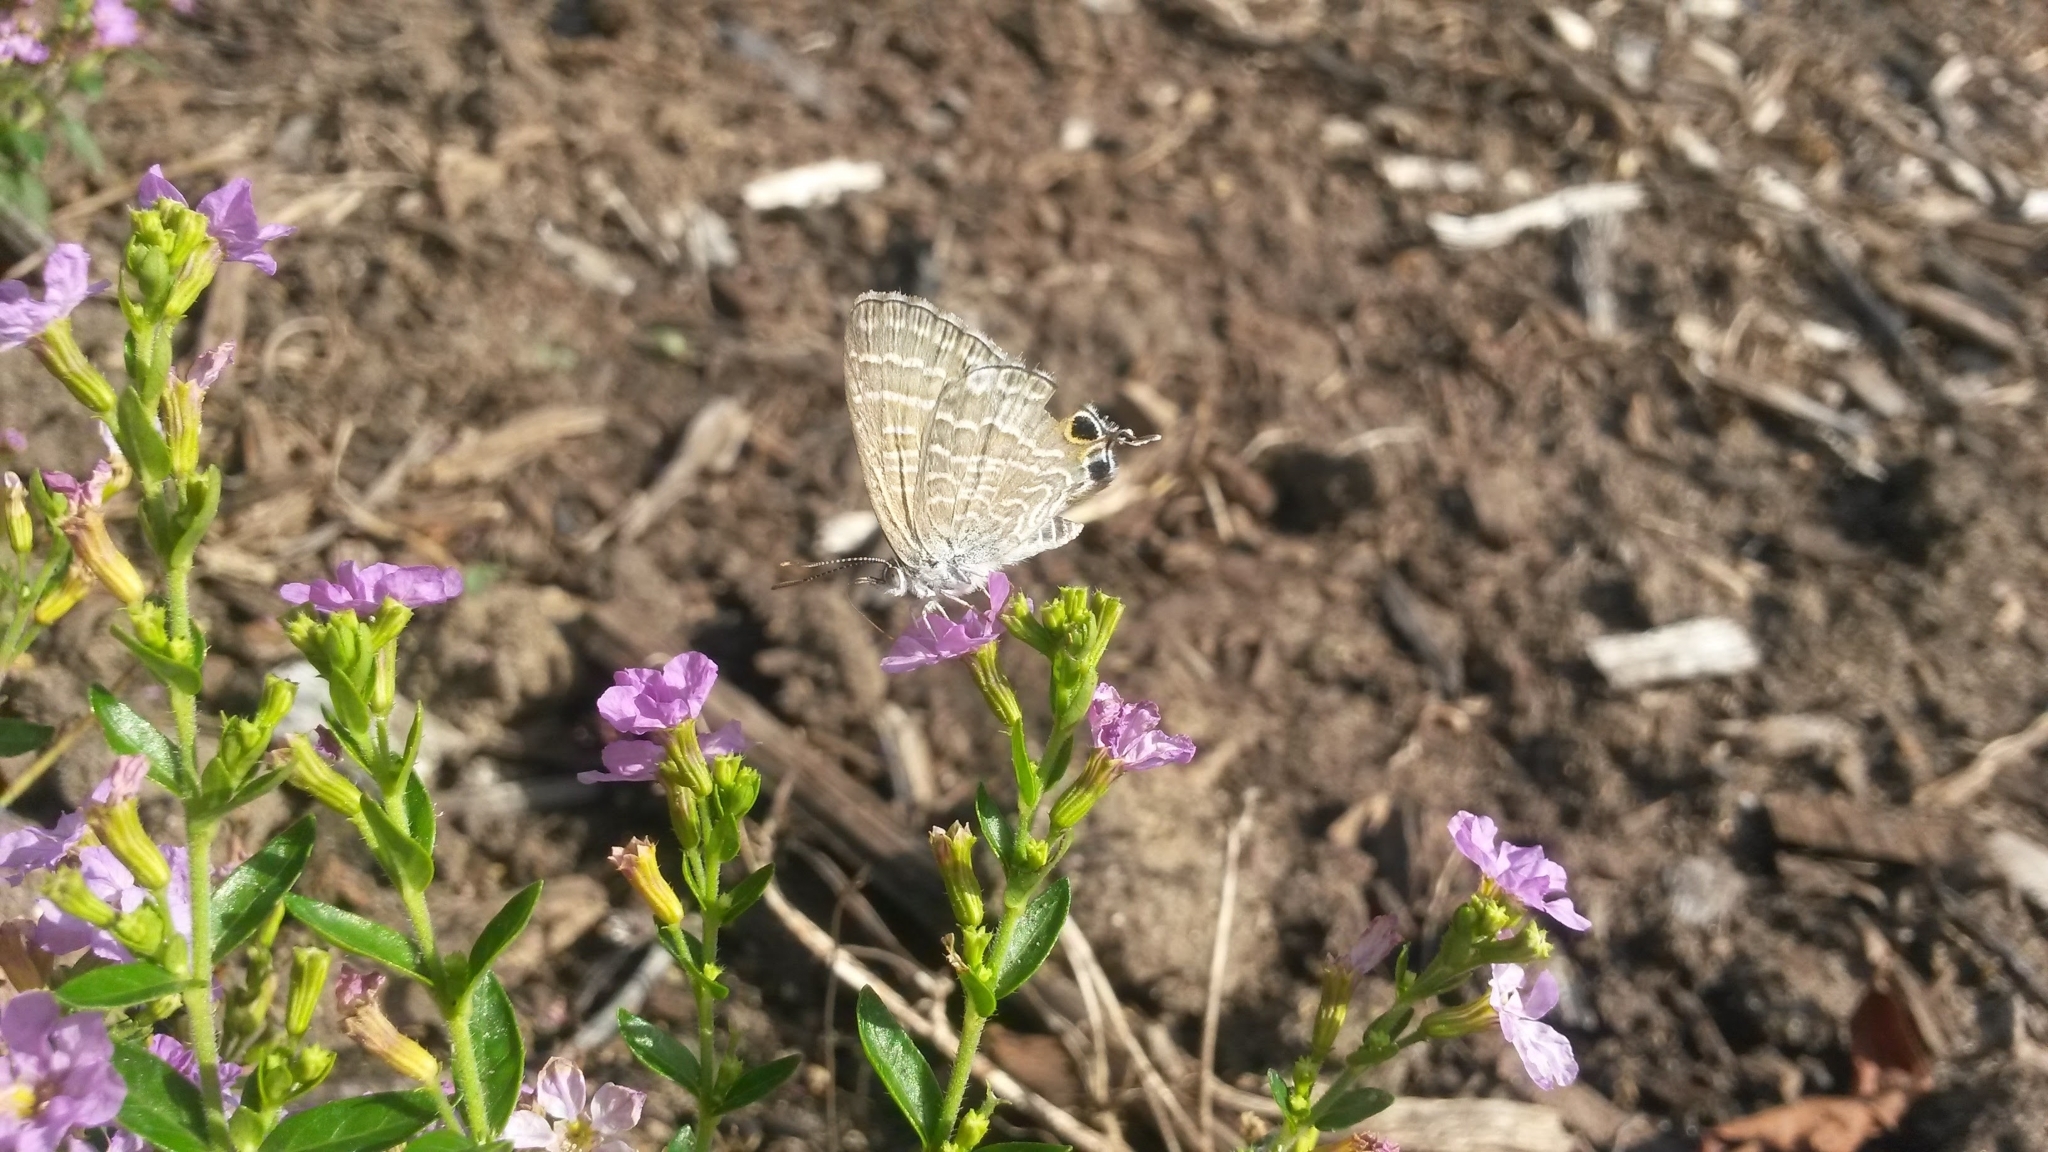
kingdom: Animalia
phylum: Arthropoda
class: Insecta
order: Lepidoptera
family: Lycaenidae
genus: Theclinesthes
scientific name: Theclinesthes onycha
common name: Cycad blue
